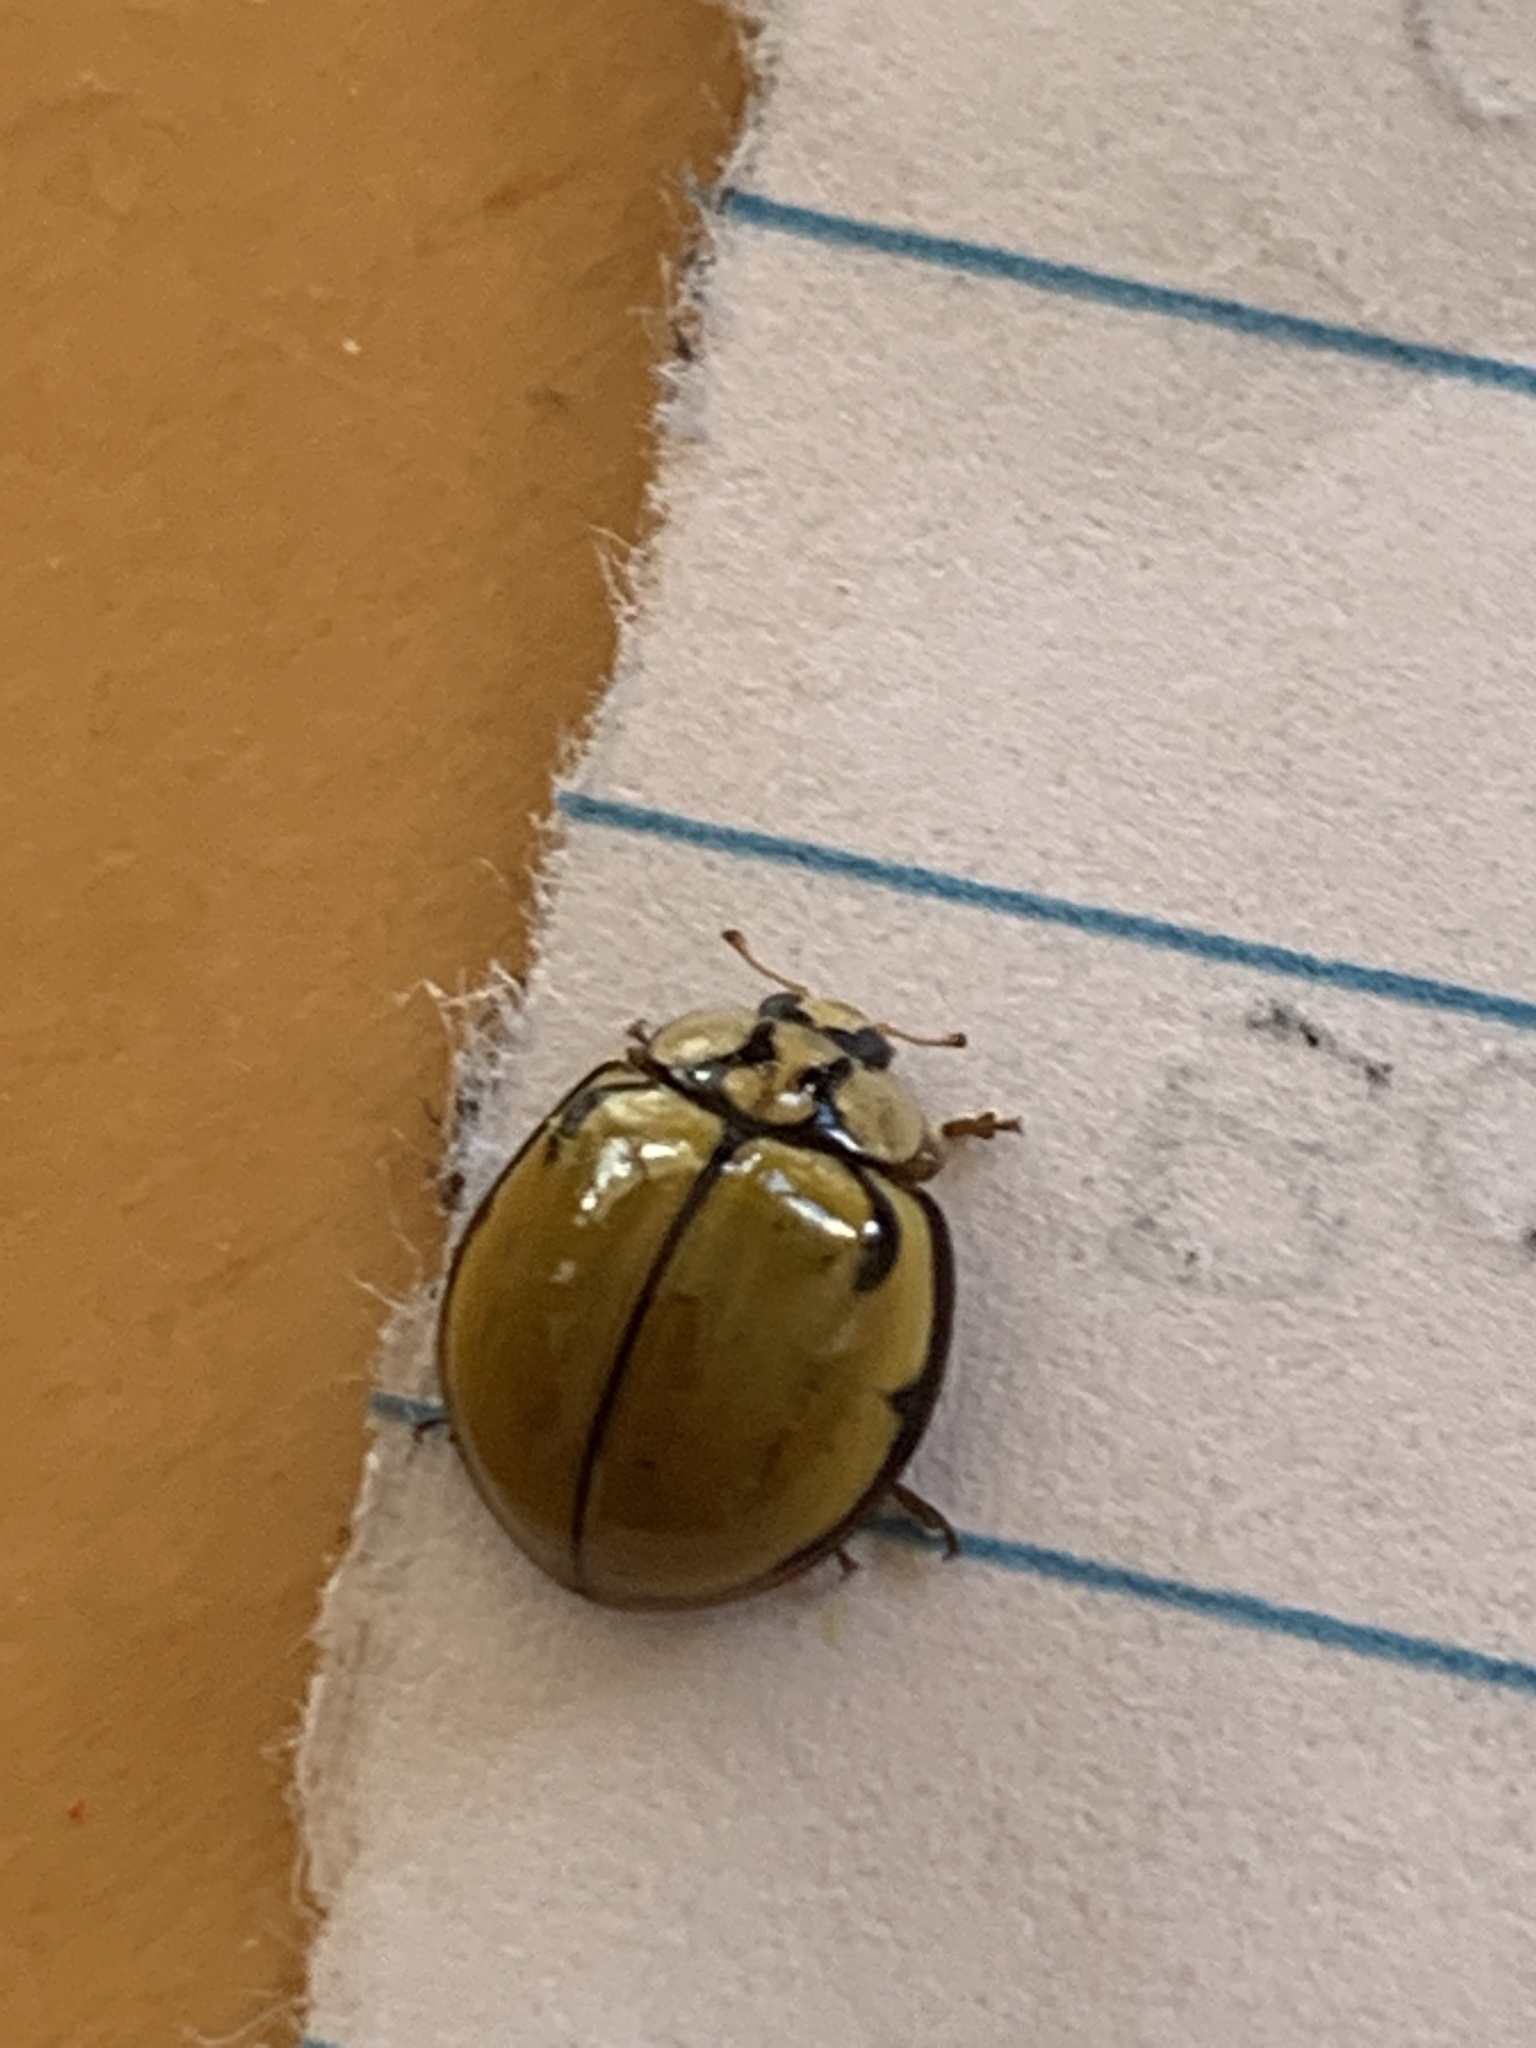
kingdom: Animalia
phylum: Arthropoda
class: Insecta
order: Coleoptera
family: Coccinellidae
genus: Harmonia
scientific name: Harmonia
